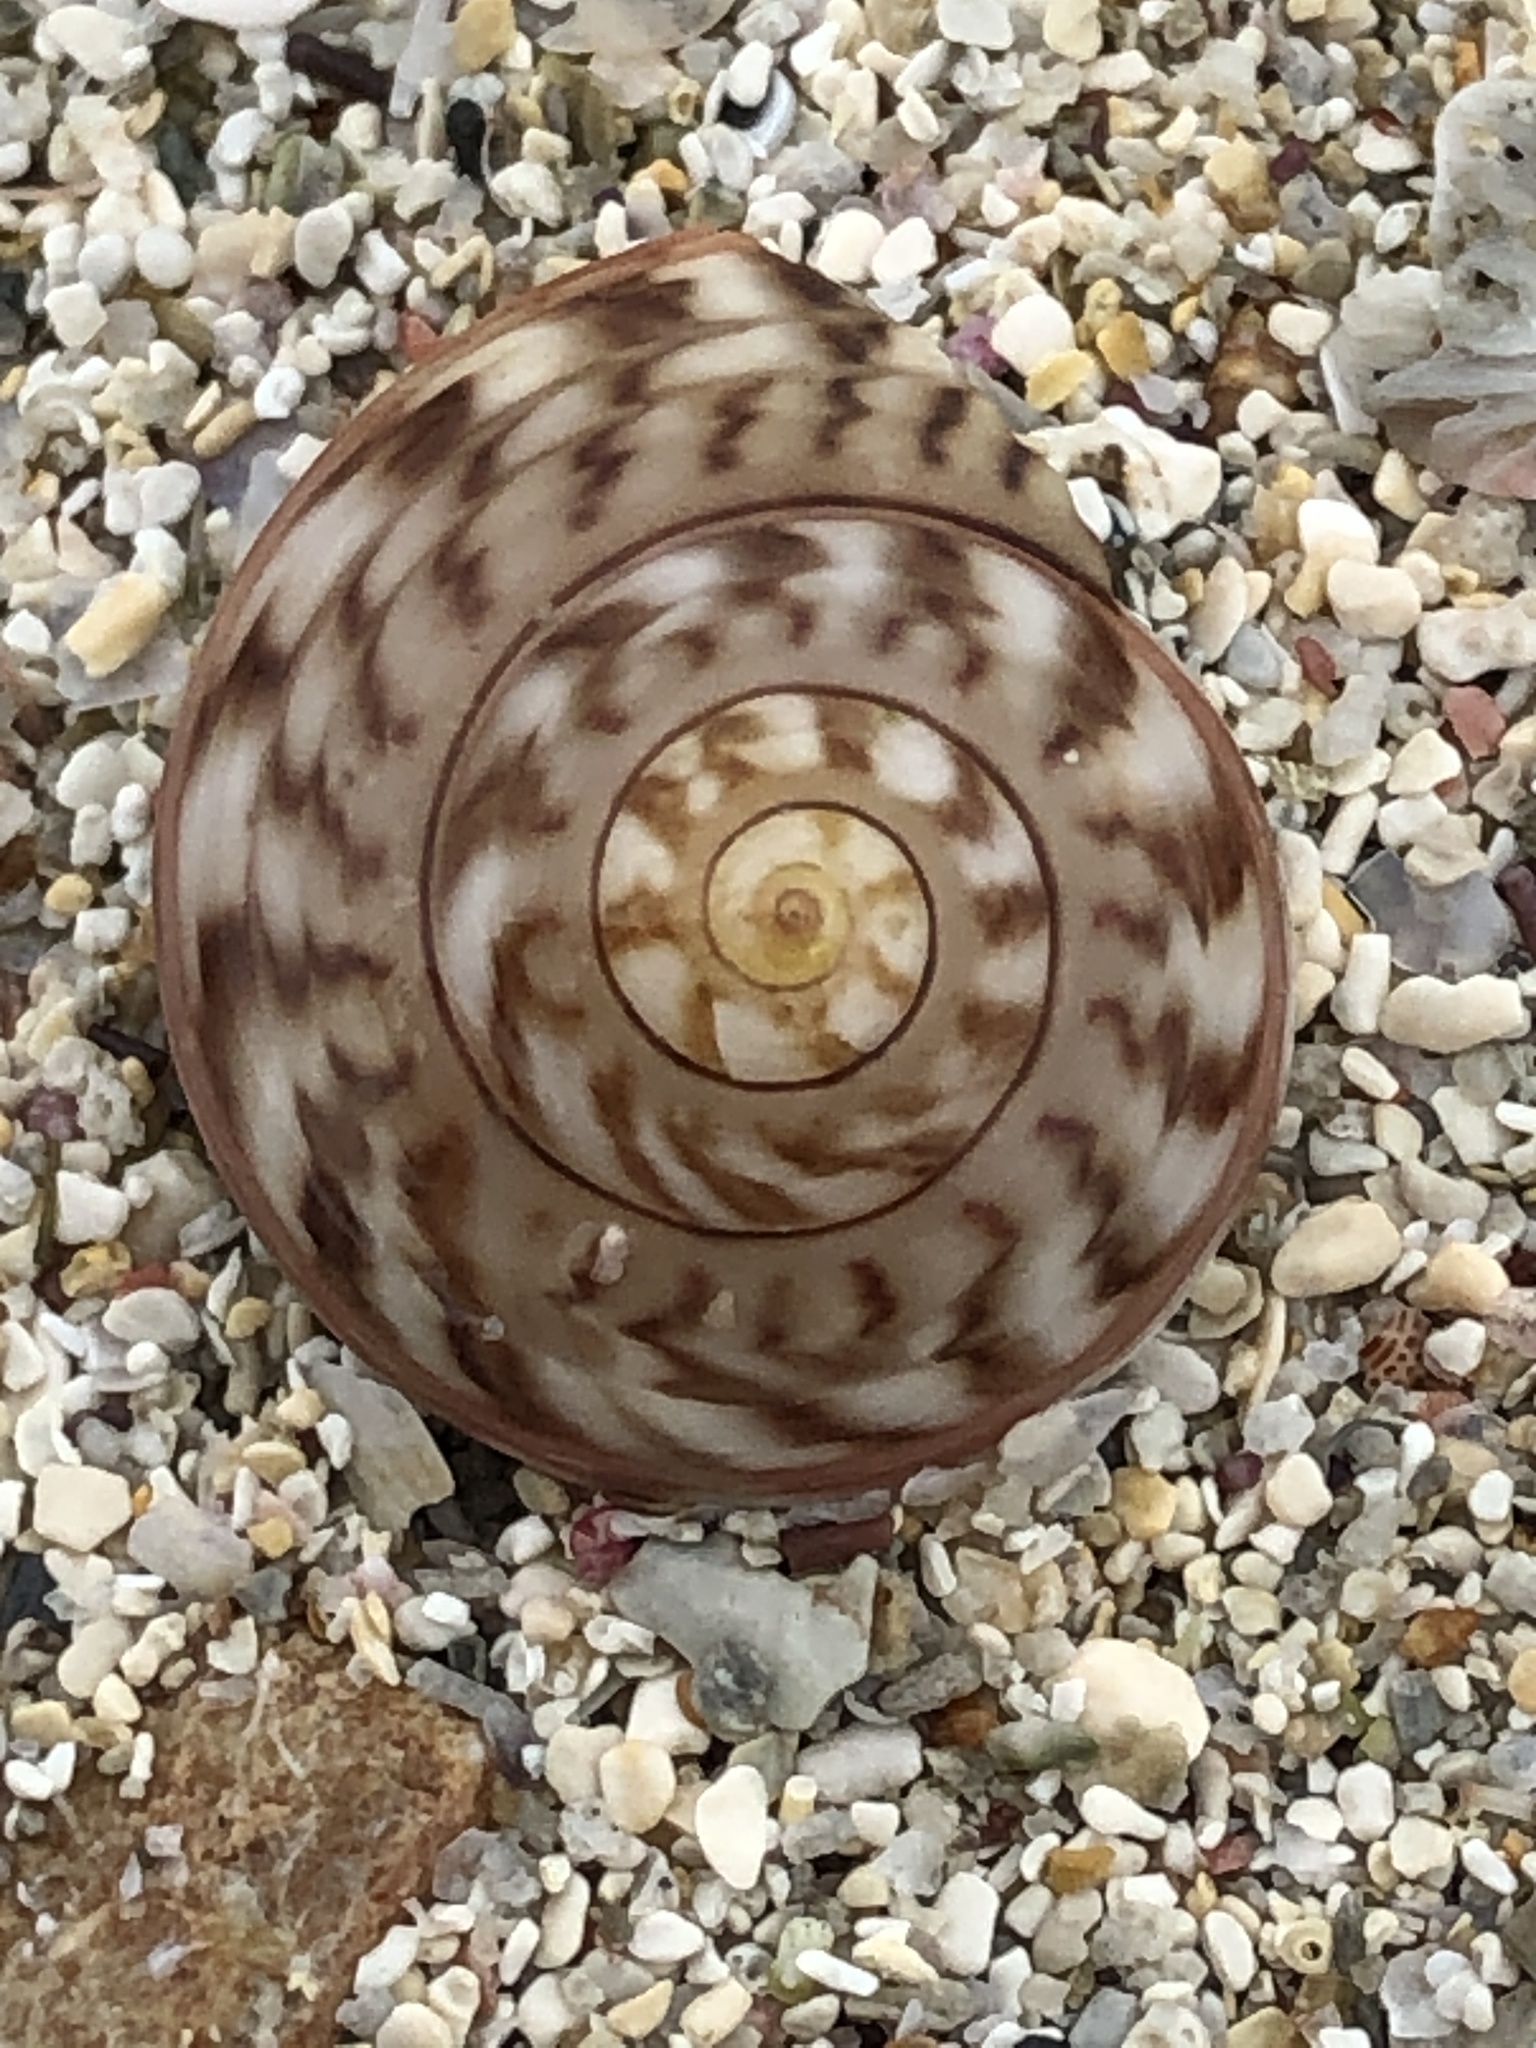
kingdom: Animalia
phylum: Mollusca
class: Gastropoda
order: Trochida
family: Trochidae
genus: Umbonium
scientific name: Umbonium costatum
